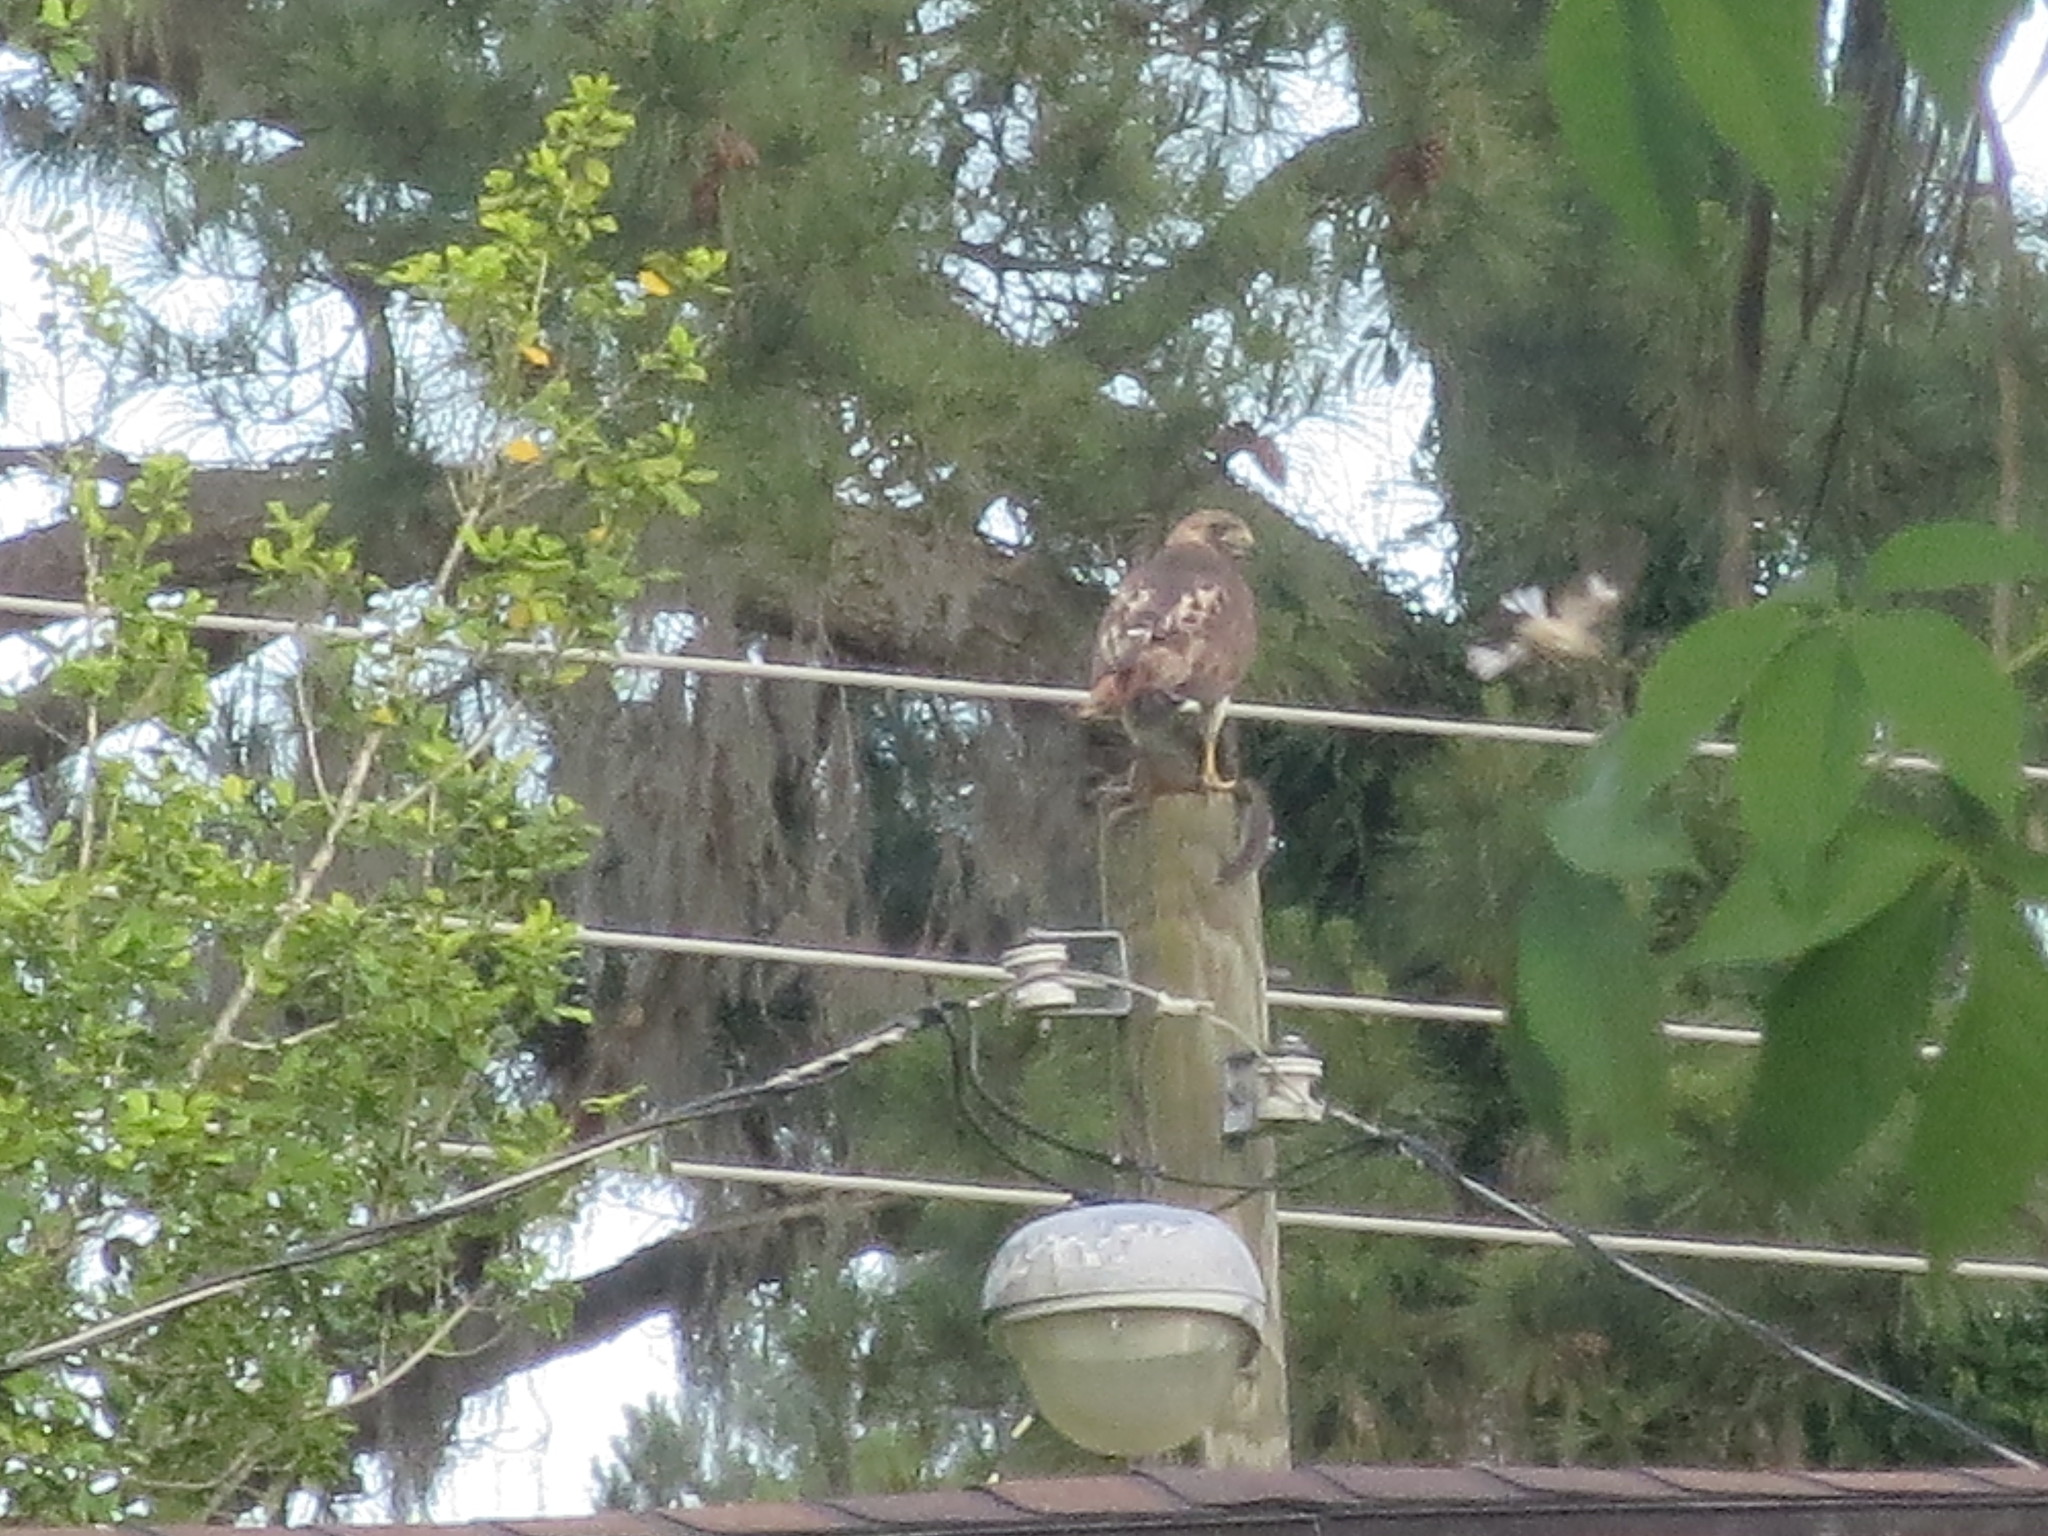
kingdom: Animalia
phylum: Chordata
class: Aves
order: Accipitriformes
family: Accipitridae
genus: Buteo
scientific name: Buteo jamaicensis
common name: Red-tailed hawk
